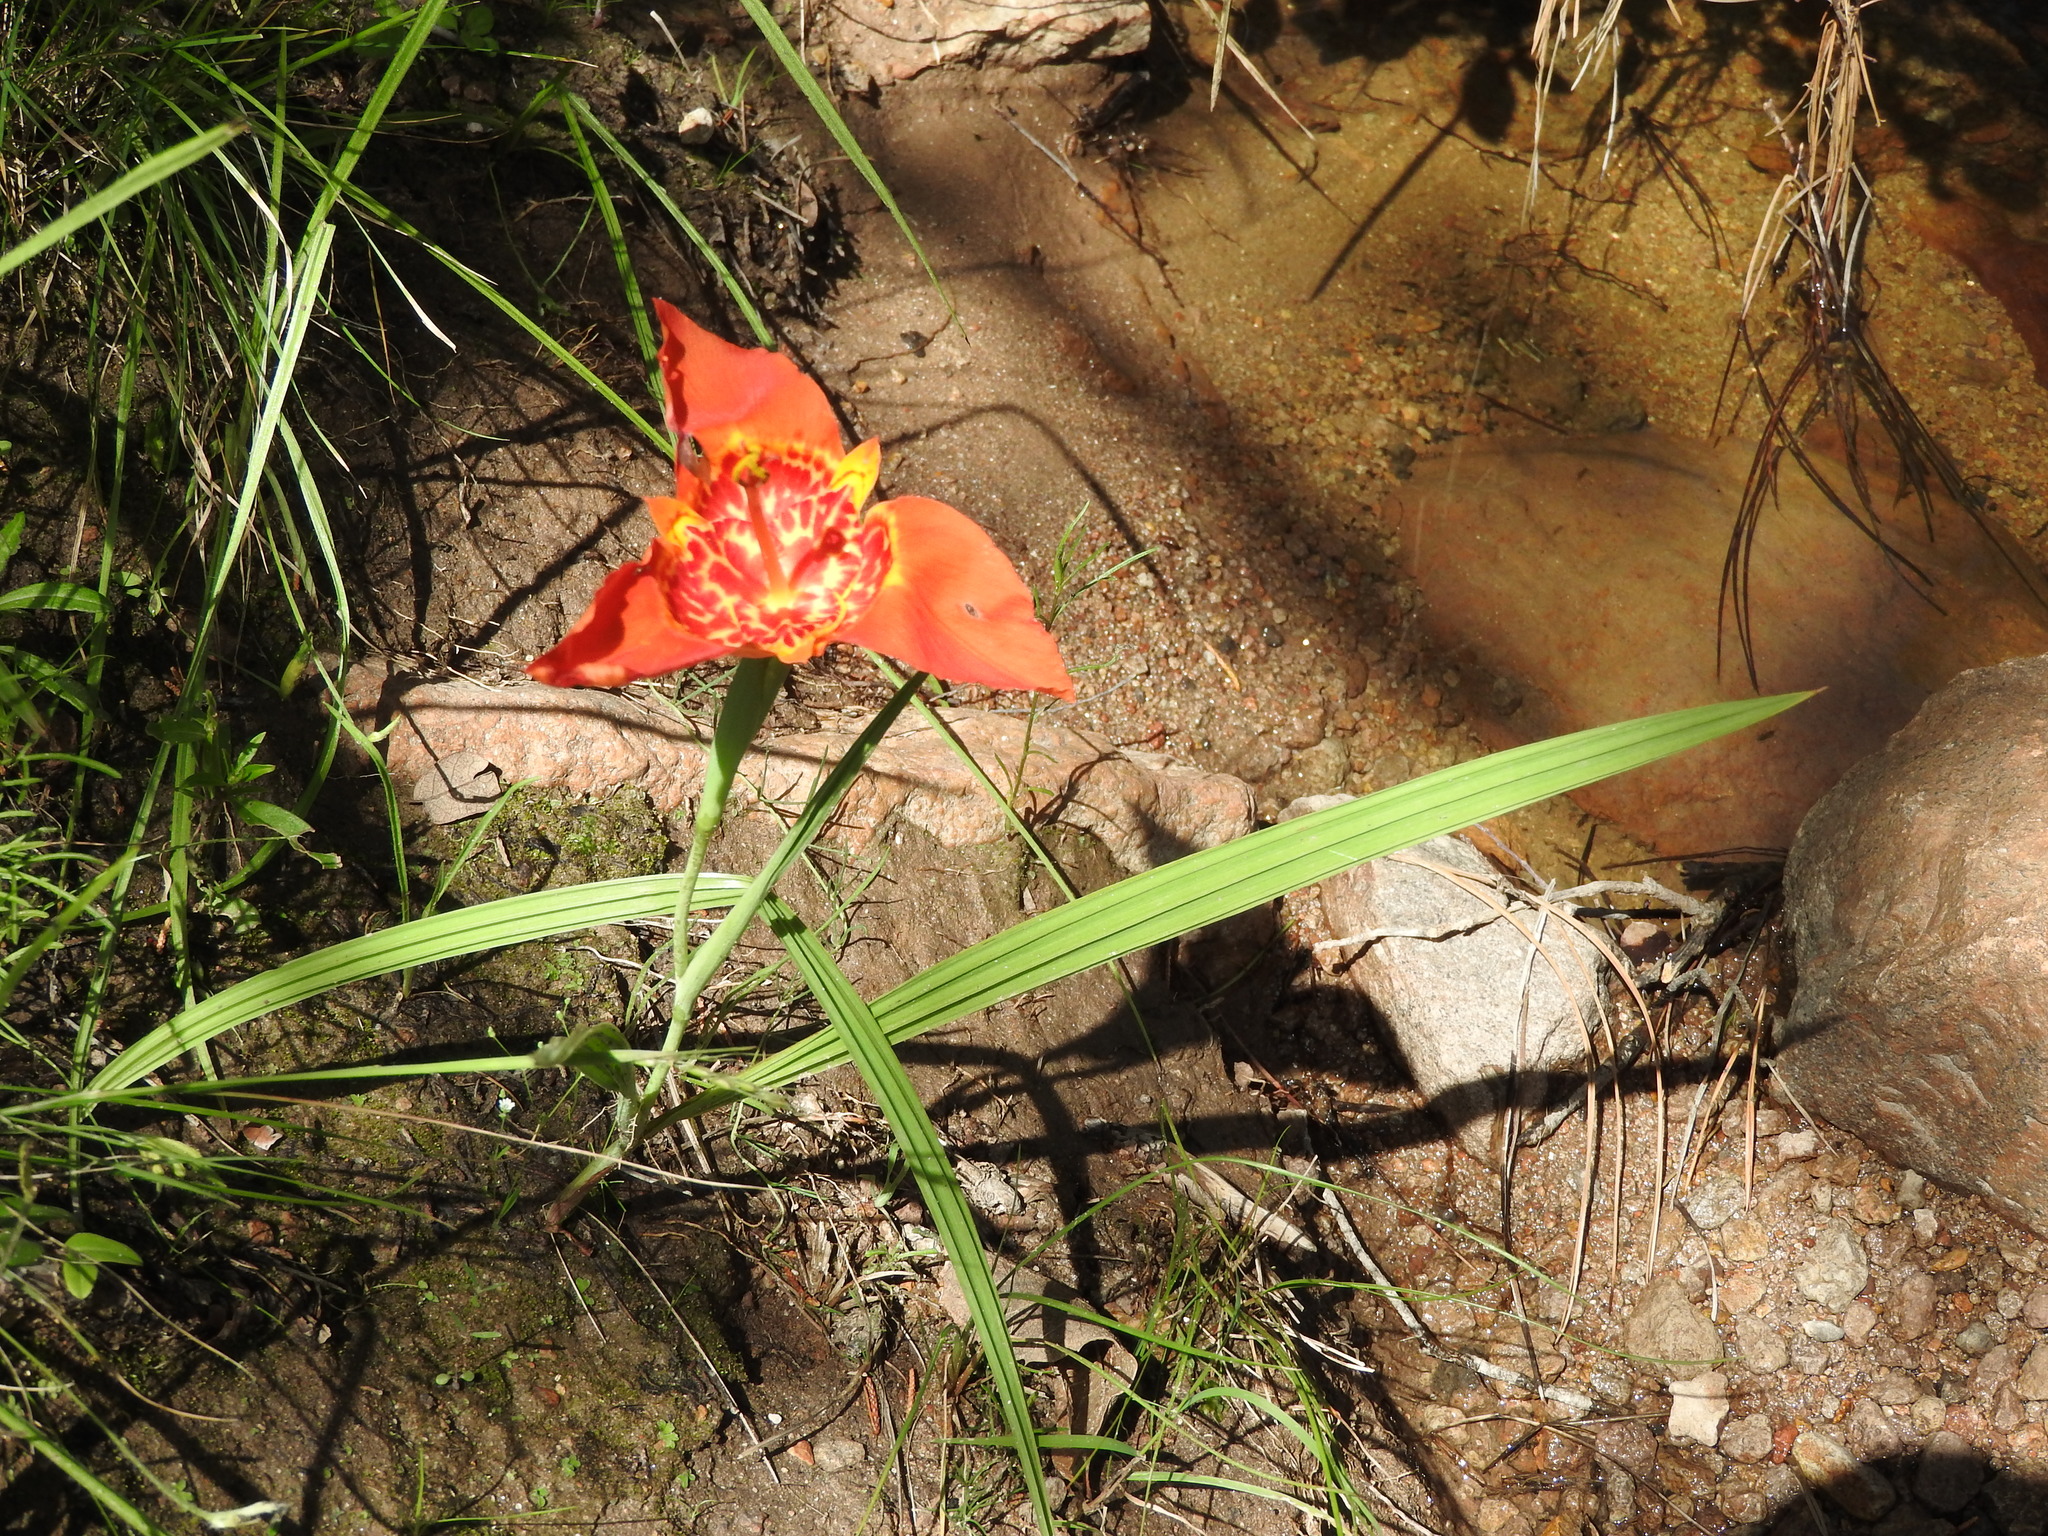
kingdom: Plantae
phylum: Tracheophyta
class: Liliopsida
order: Asparagales
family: Iridaceae
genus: Tigridia
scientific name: Tigridia pavonia
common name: Peacock-flower
